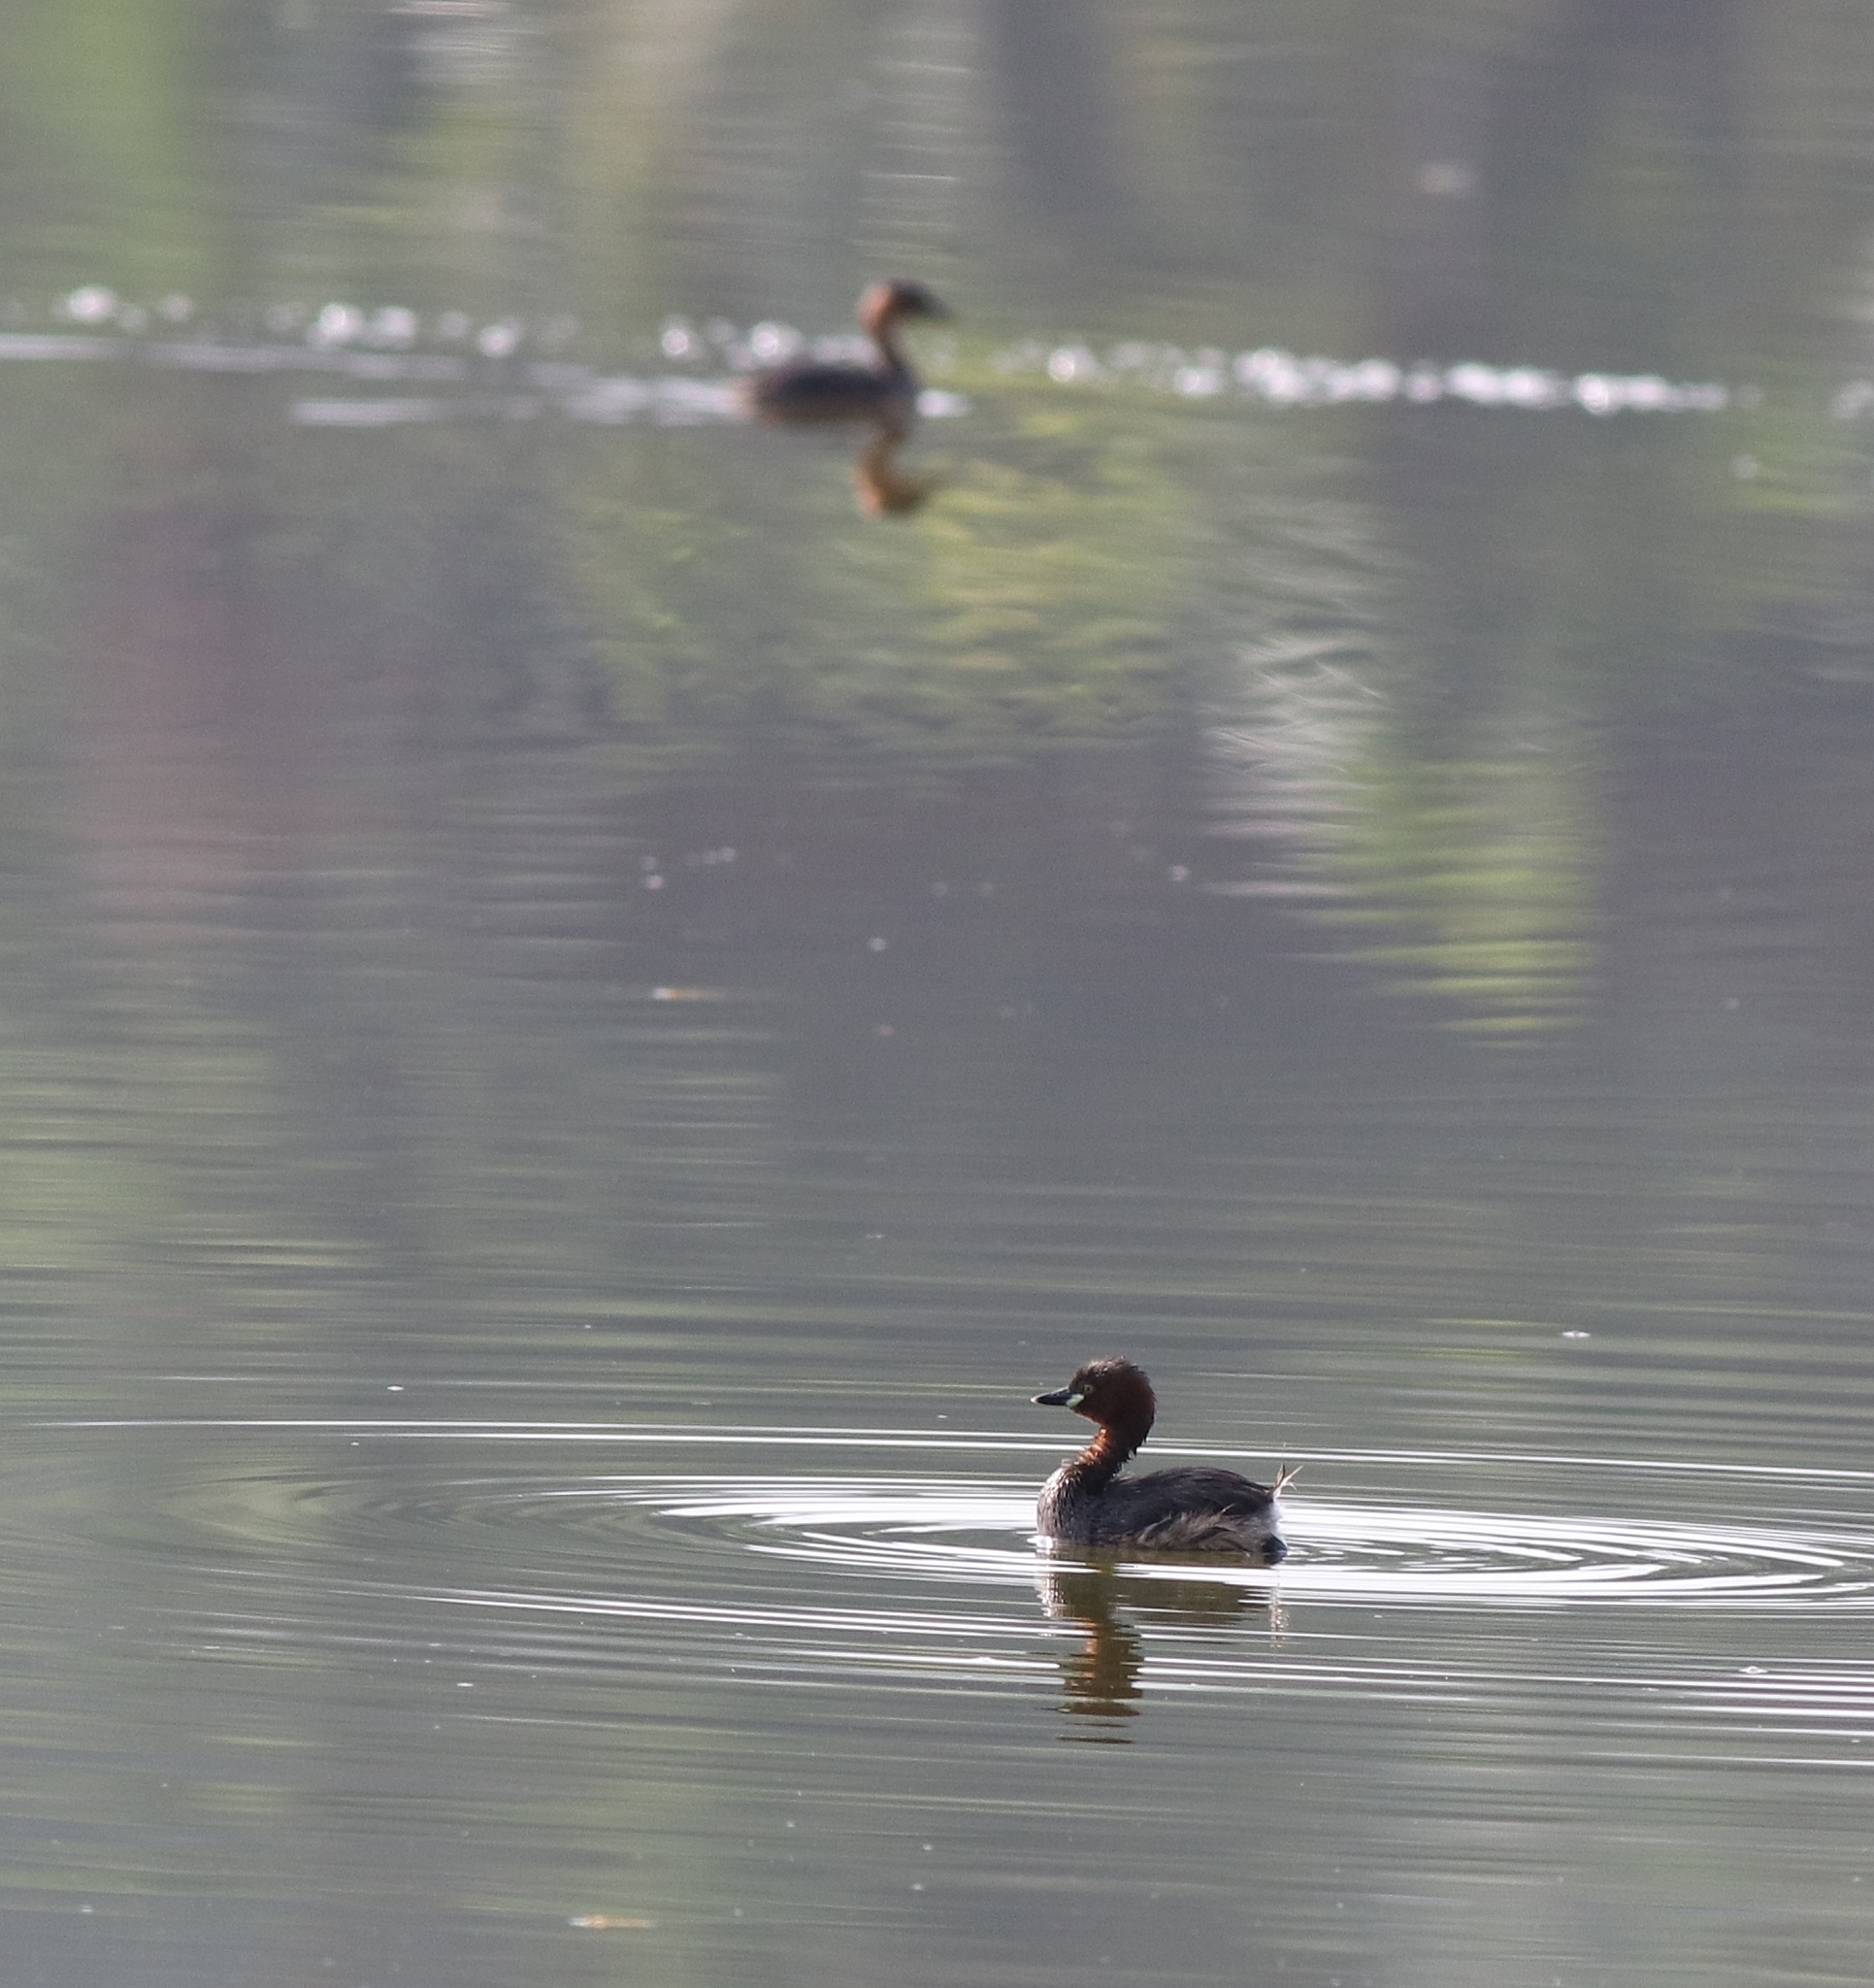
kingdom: Animalia
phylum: Chordata
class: Aves
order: Podicipediformes
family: Podicipedidae
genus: Tachybaptus
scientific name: Tachybaptus ruficollis
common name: Little grebe
